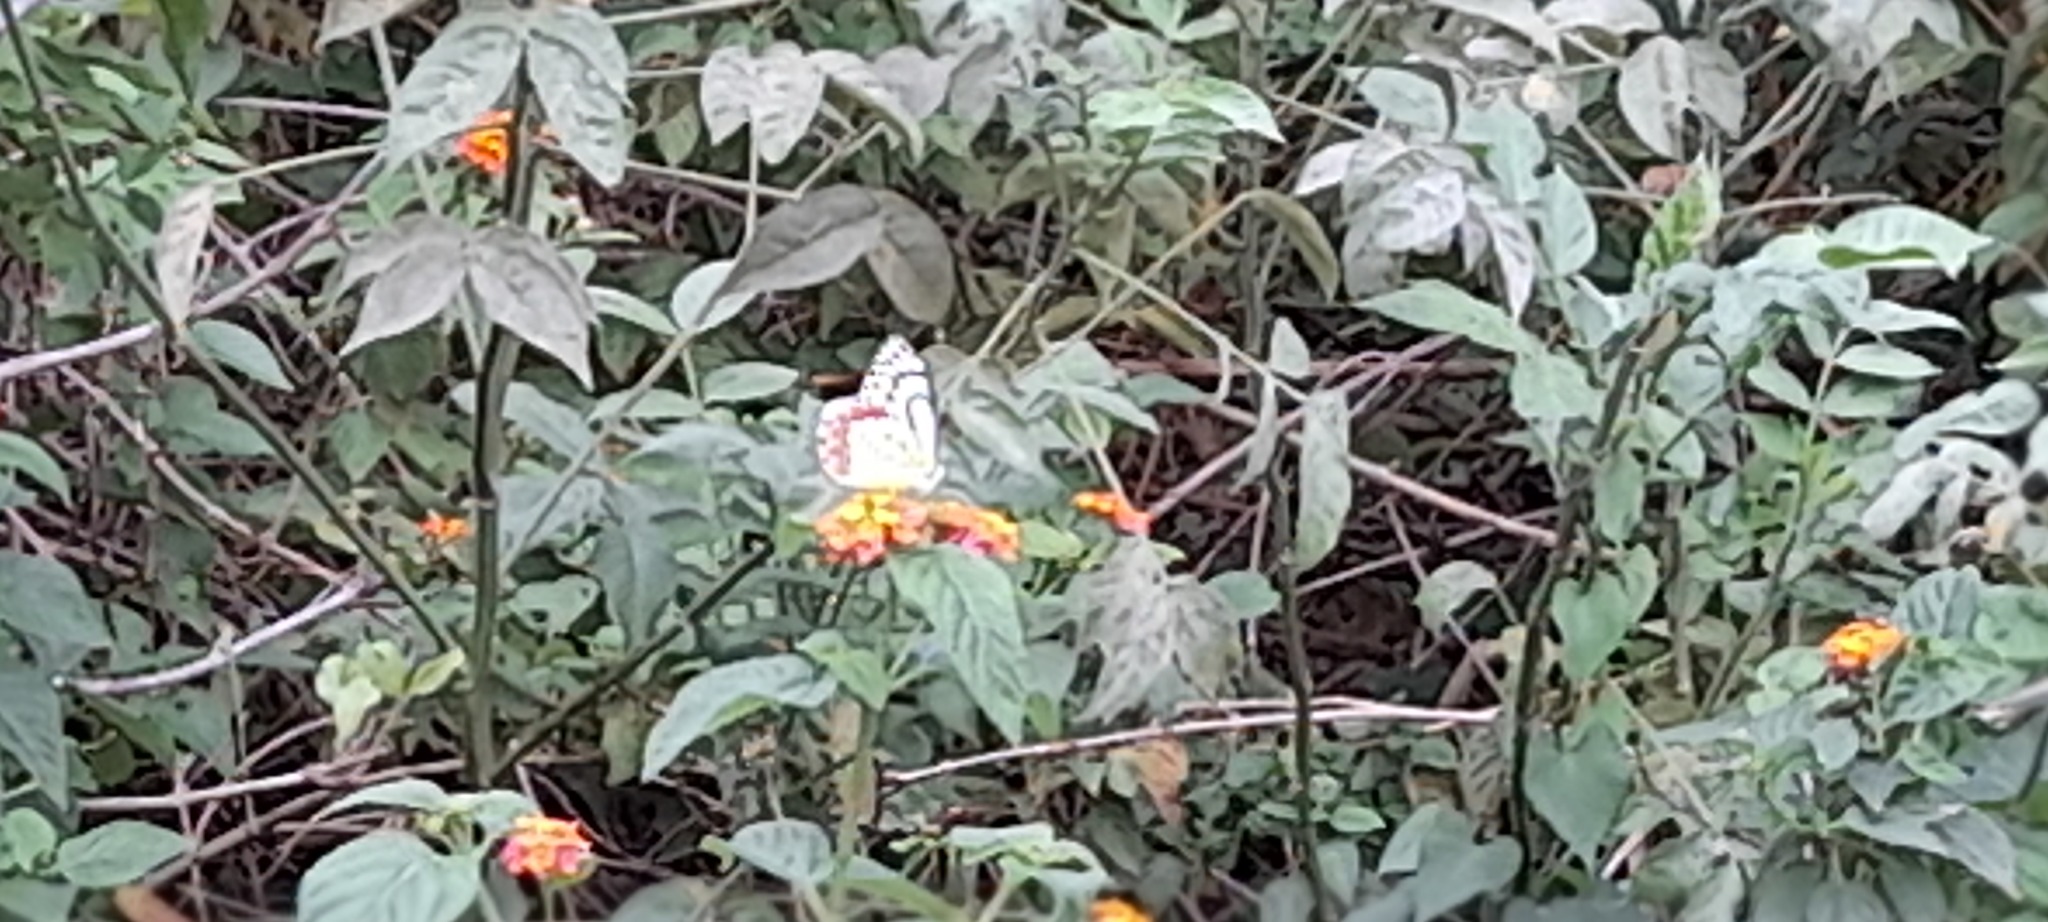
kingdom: Animalia
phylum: Arthropoda
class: Insecta
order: Lepidoptera
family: Pieridae
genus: Delias
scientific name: Delias eucharis
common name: Common jezebel
